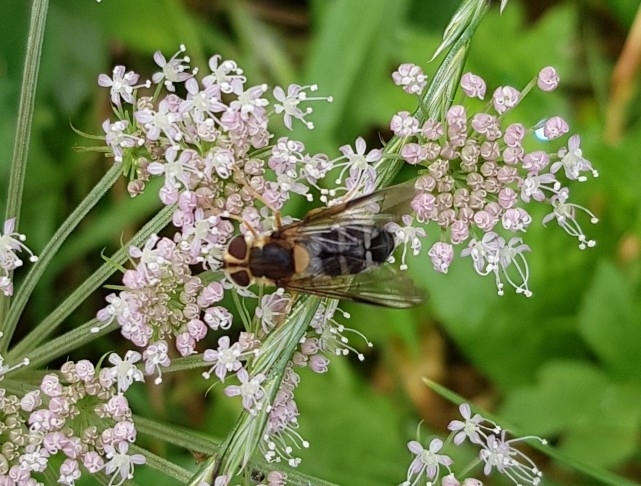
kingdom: Animalia
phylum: Arthropoda
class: Insecta
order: Diptera
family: Syrphidae
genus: Leucozona
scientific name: Leucozona glaucia
